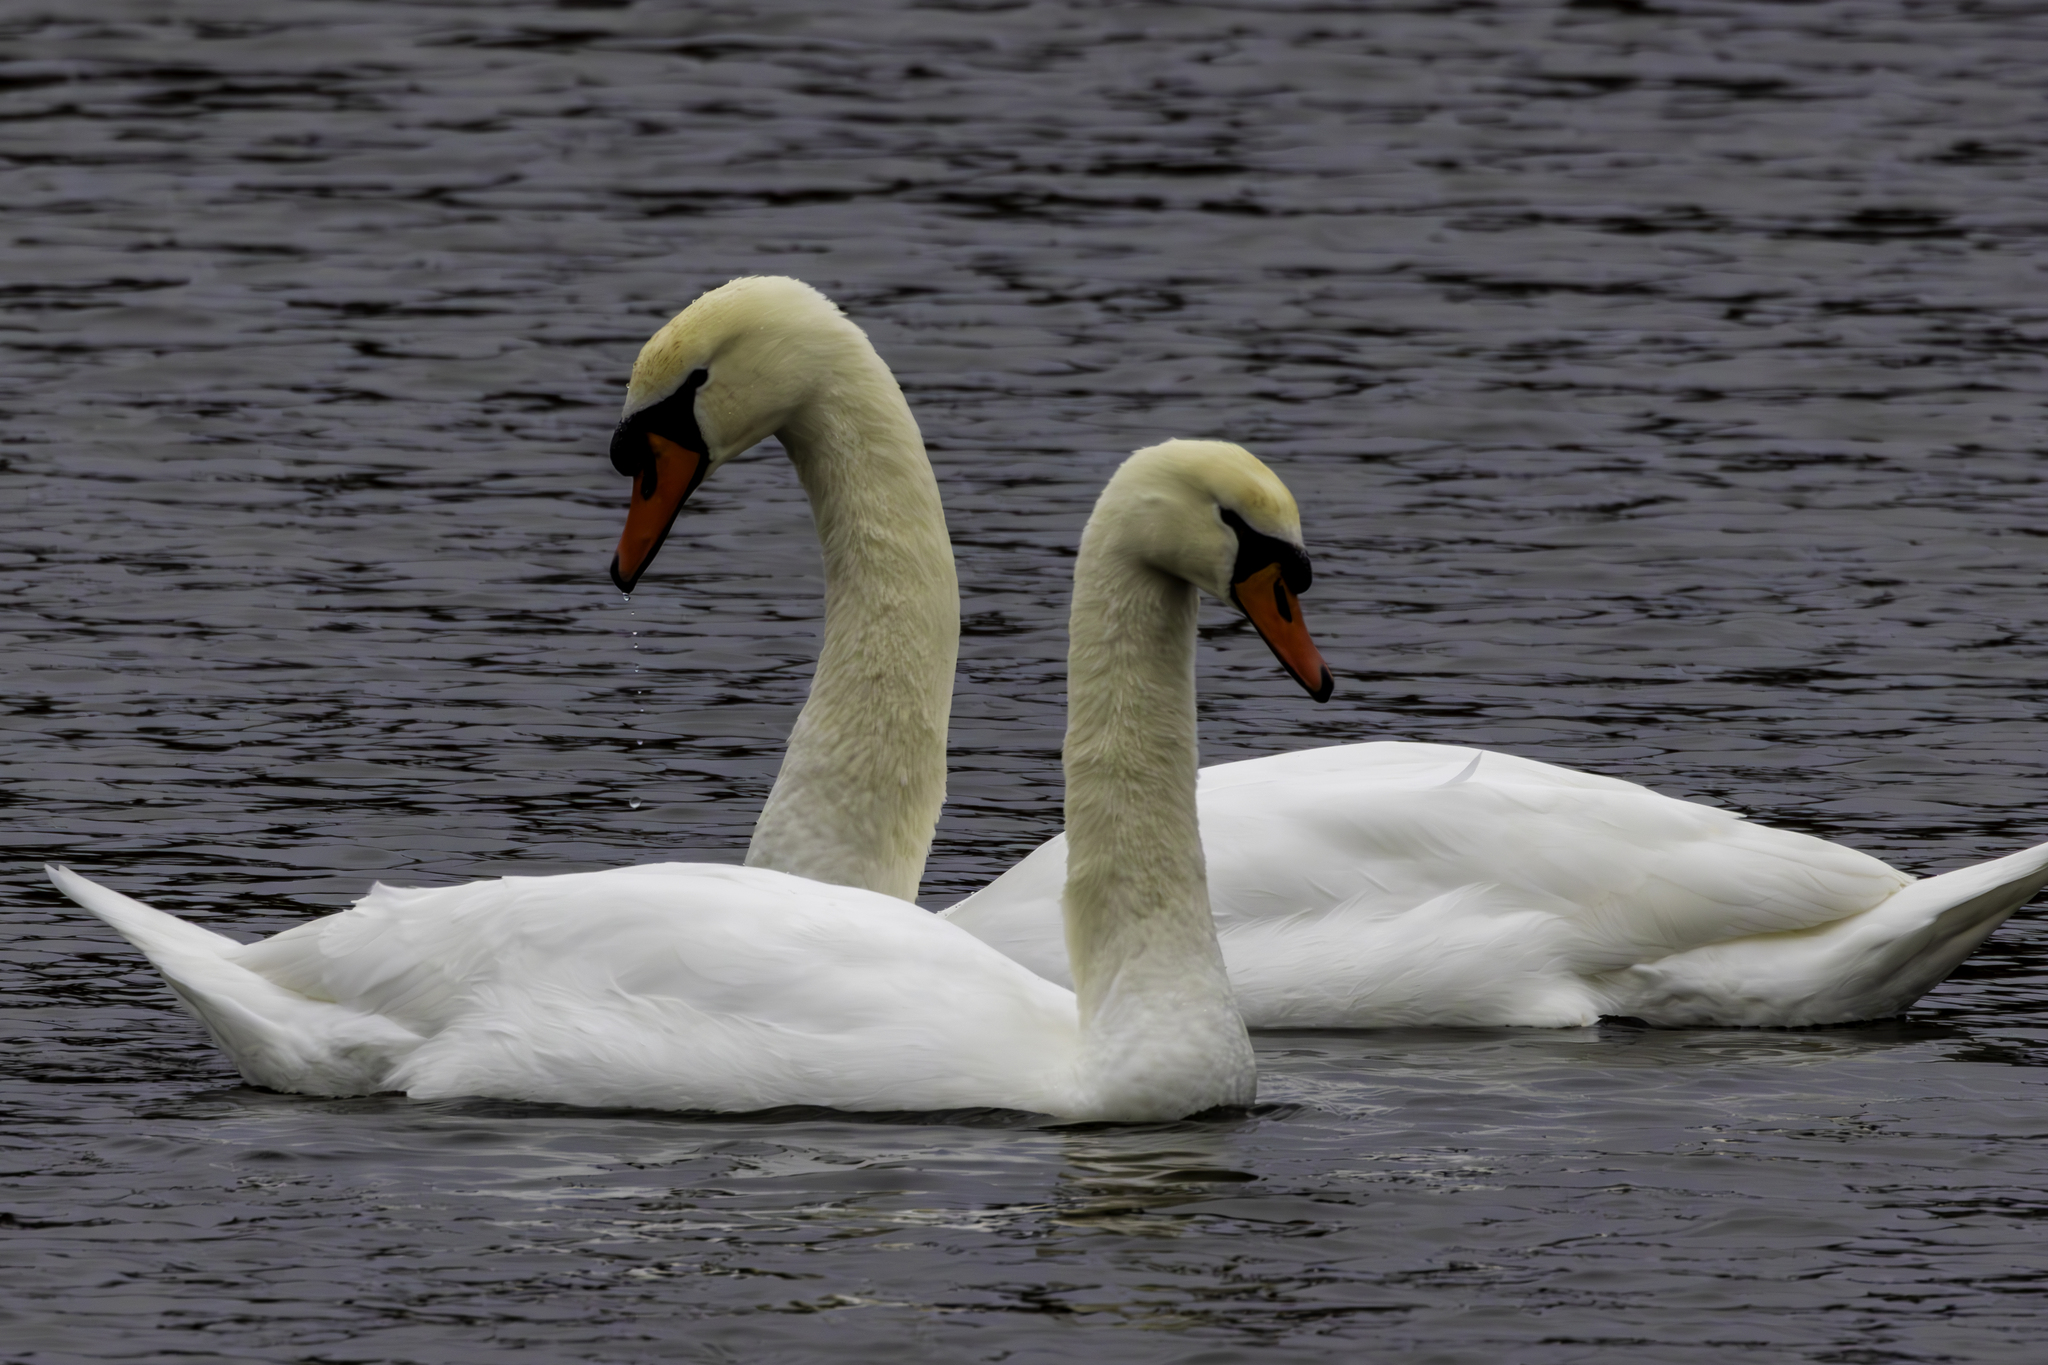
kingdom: Animalia
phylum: Chordata
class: Aves
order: Anseriformes
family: Anatidae
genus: Cygnus
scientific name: Cygnus olor
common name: Mute swan
